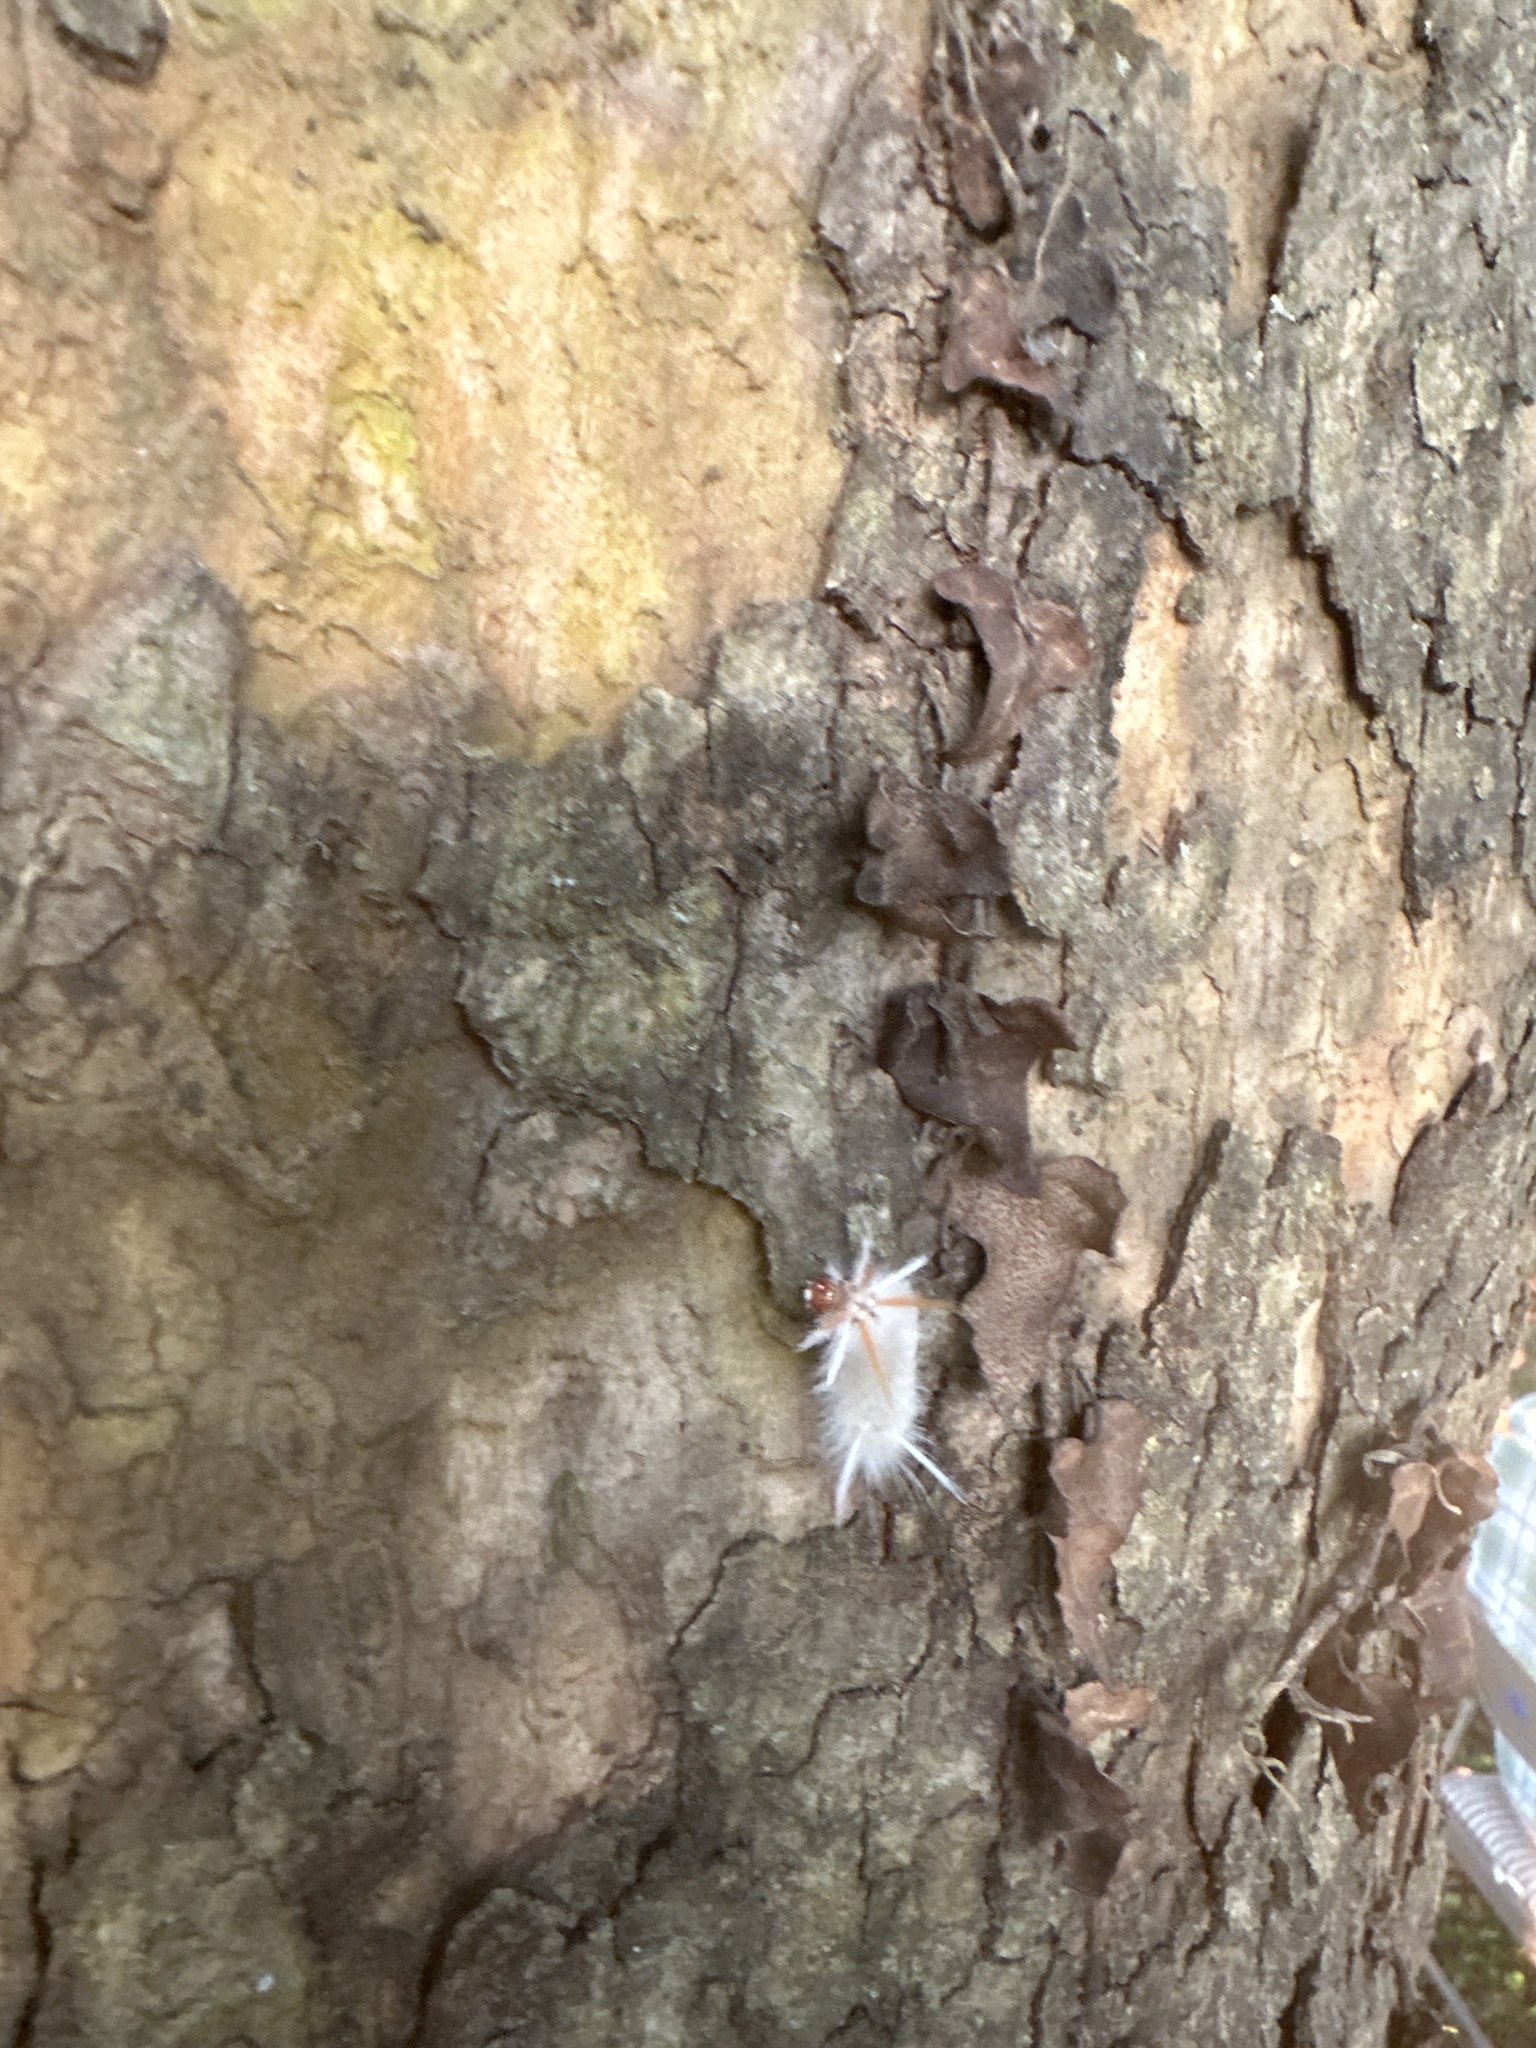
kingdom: Animalia
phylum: Arthropoda
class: Insecta
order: Lepidoptera
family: Erebidae
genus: Halysidota
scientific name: Halysidota harrisii
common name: Sycamore tussock moth
